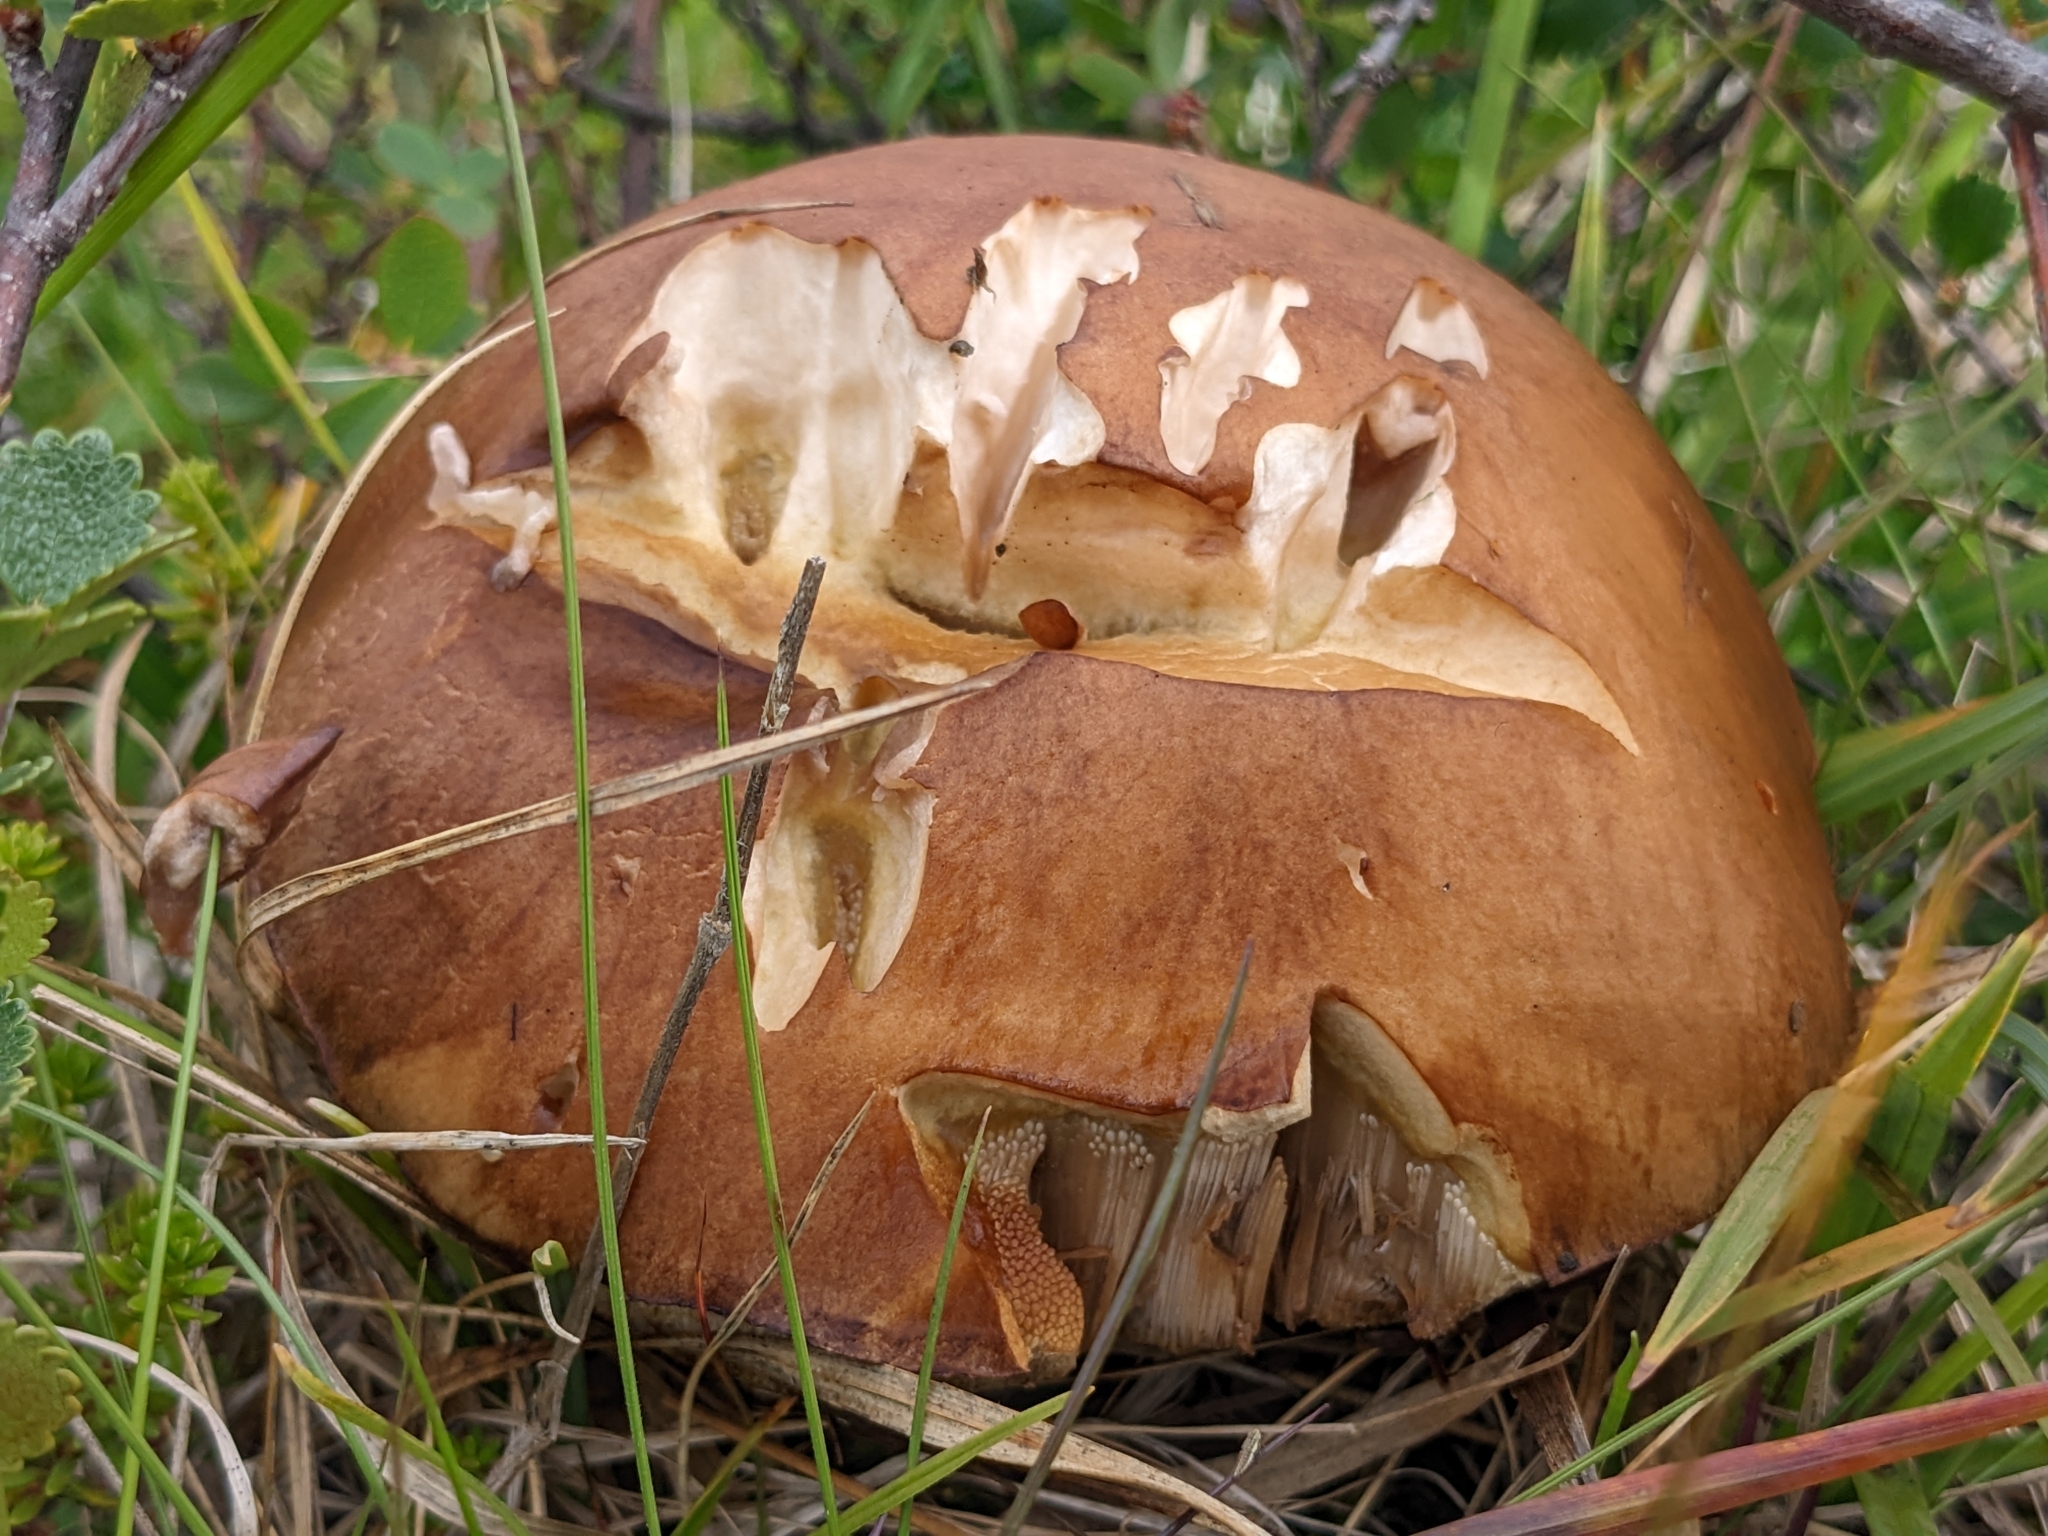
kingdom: Fungi
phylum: Basidiomycota
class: Agaricomycetes
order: Boletales
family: Boletaceae
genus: Leccinum
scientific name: Leccinum scabrum
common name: Blushing bolete
